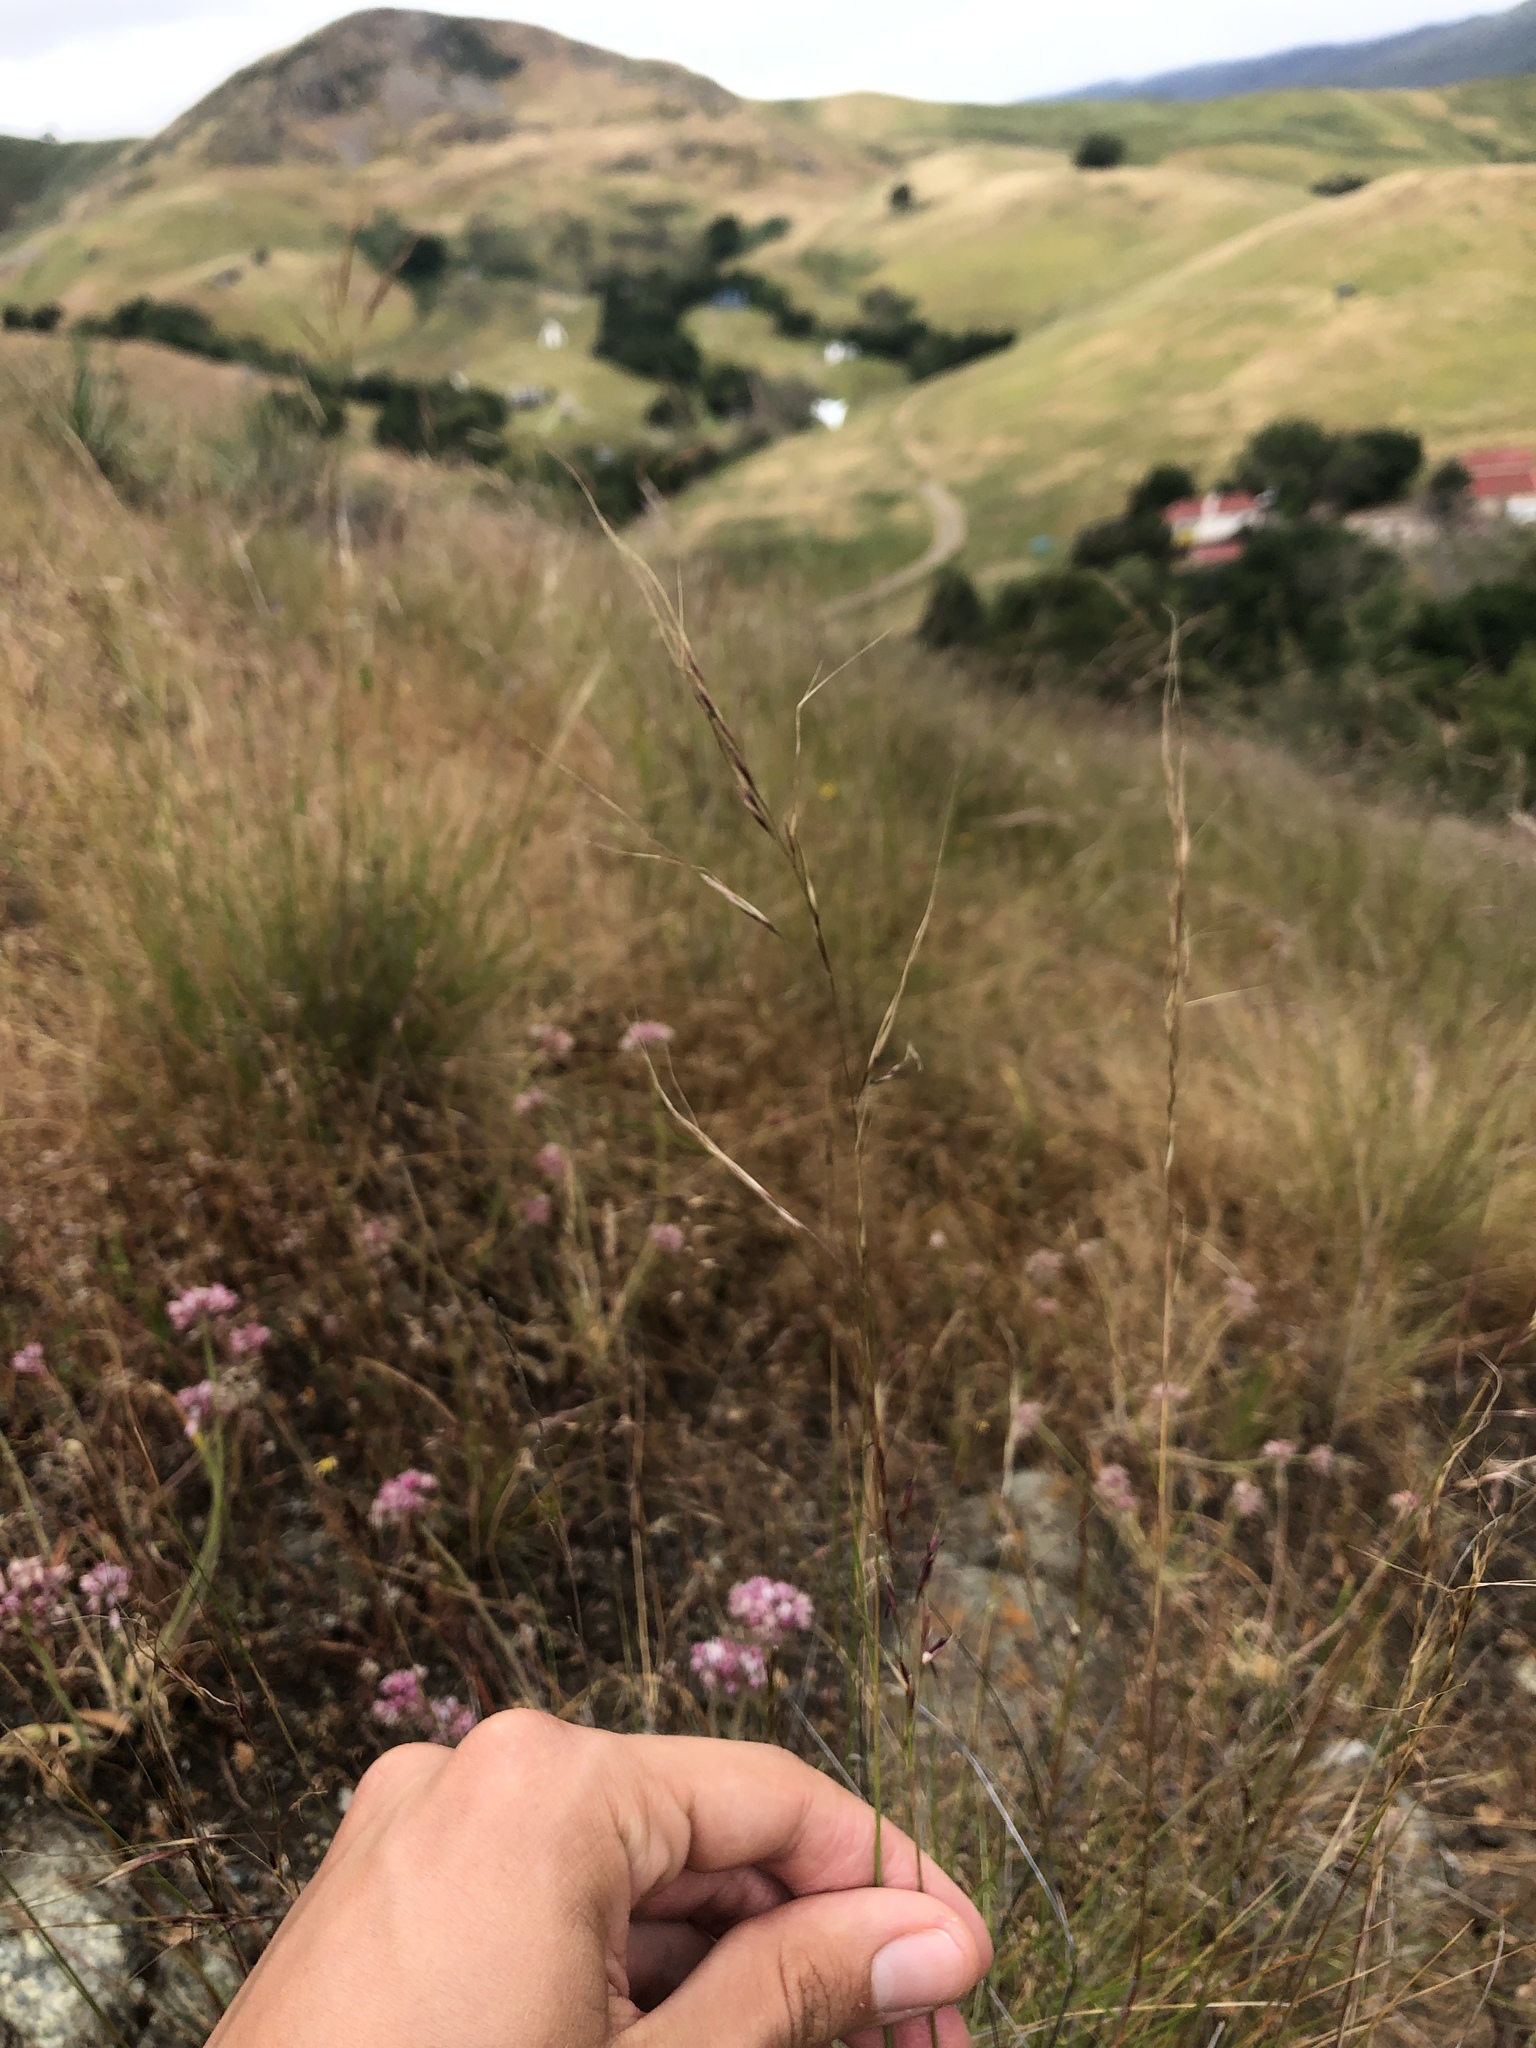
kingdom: Plantae
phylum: Tracheophyta
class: Liliopsida
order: Poales
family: Poaceae
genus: Nassella
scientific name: Nassella pulchra
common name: Purple needlegrass
